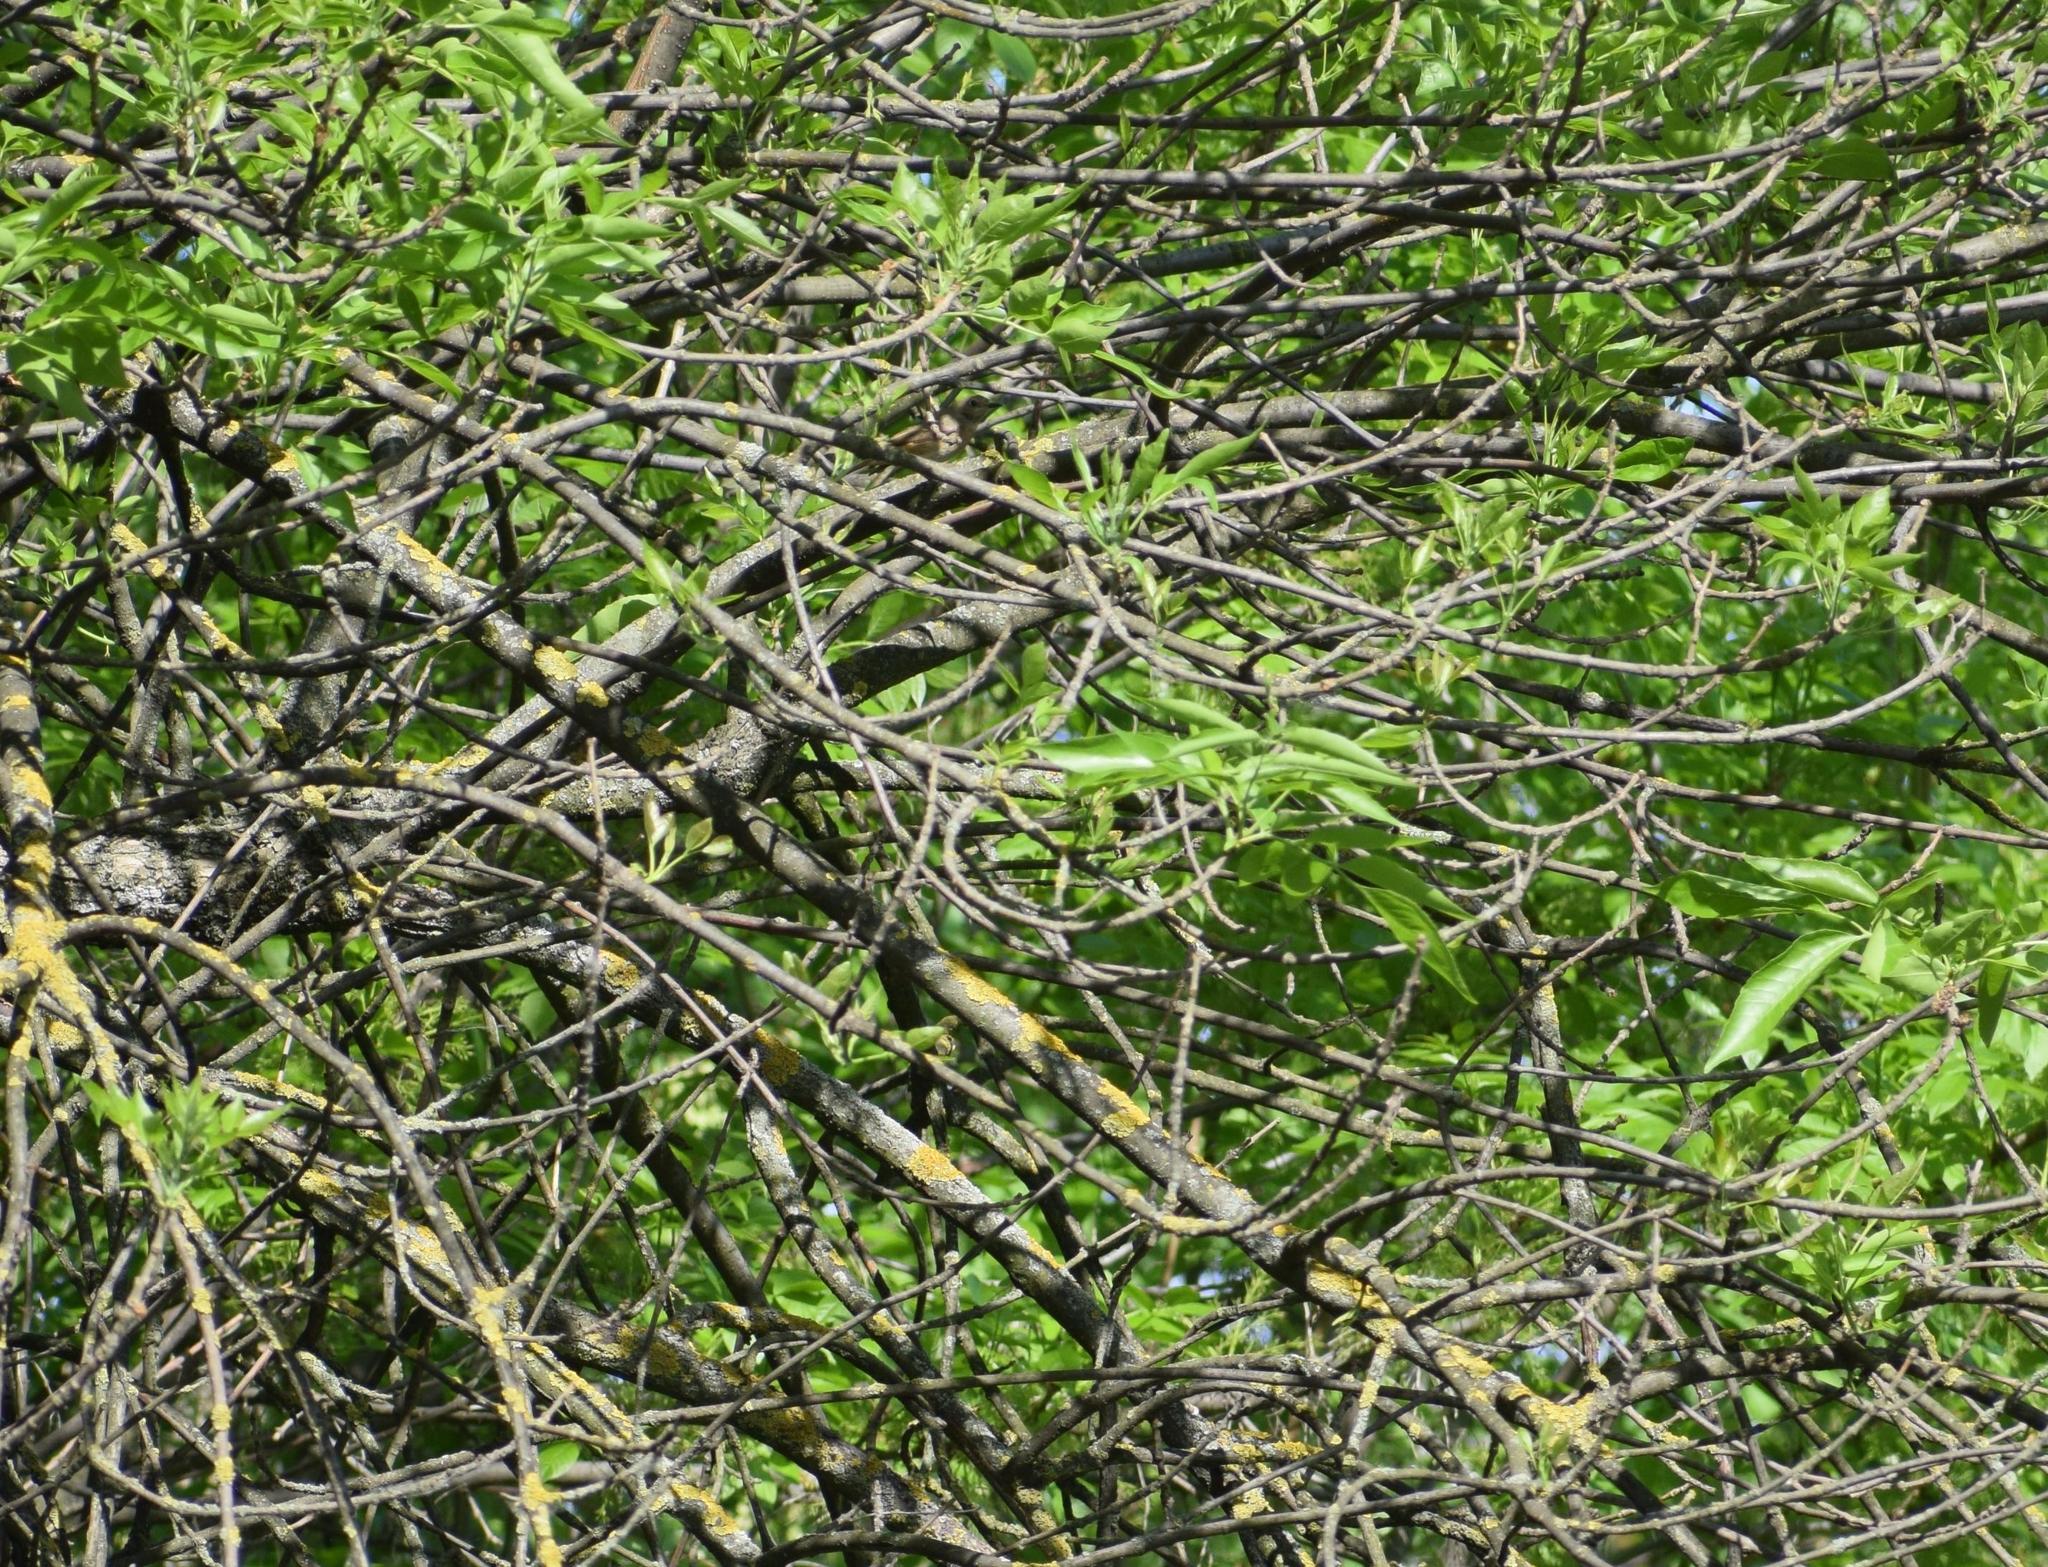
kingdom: Animalia
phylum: Chordata
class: Aves
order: Passeriformes
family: Muscicapidae
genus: Luscinia
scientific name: Luscinia megarhynchos
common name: Common nightingale
